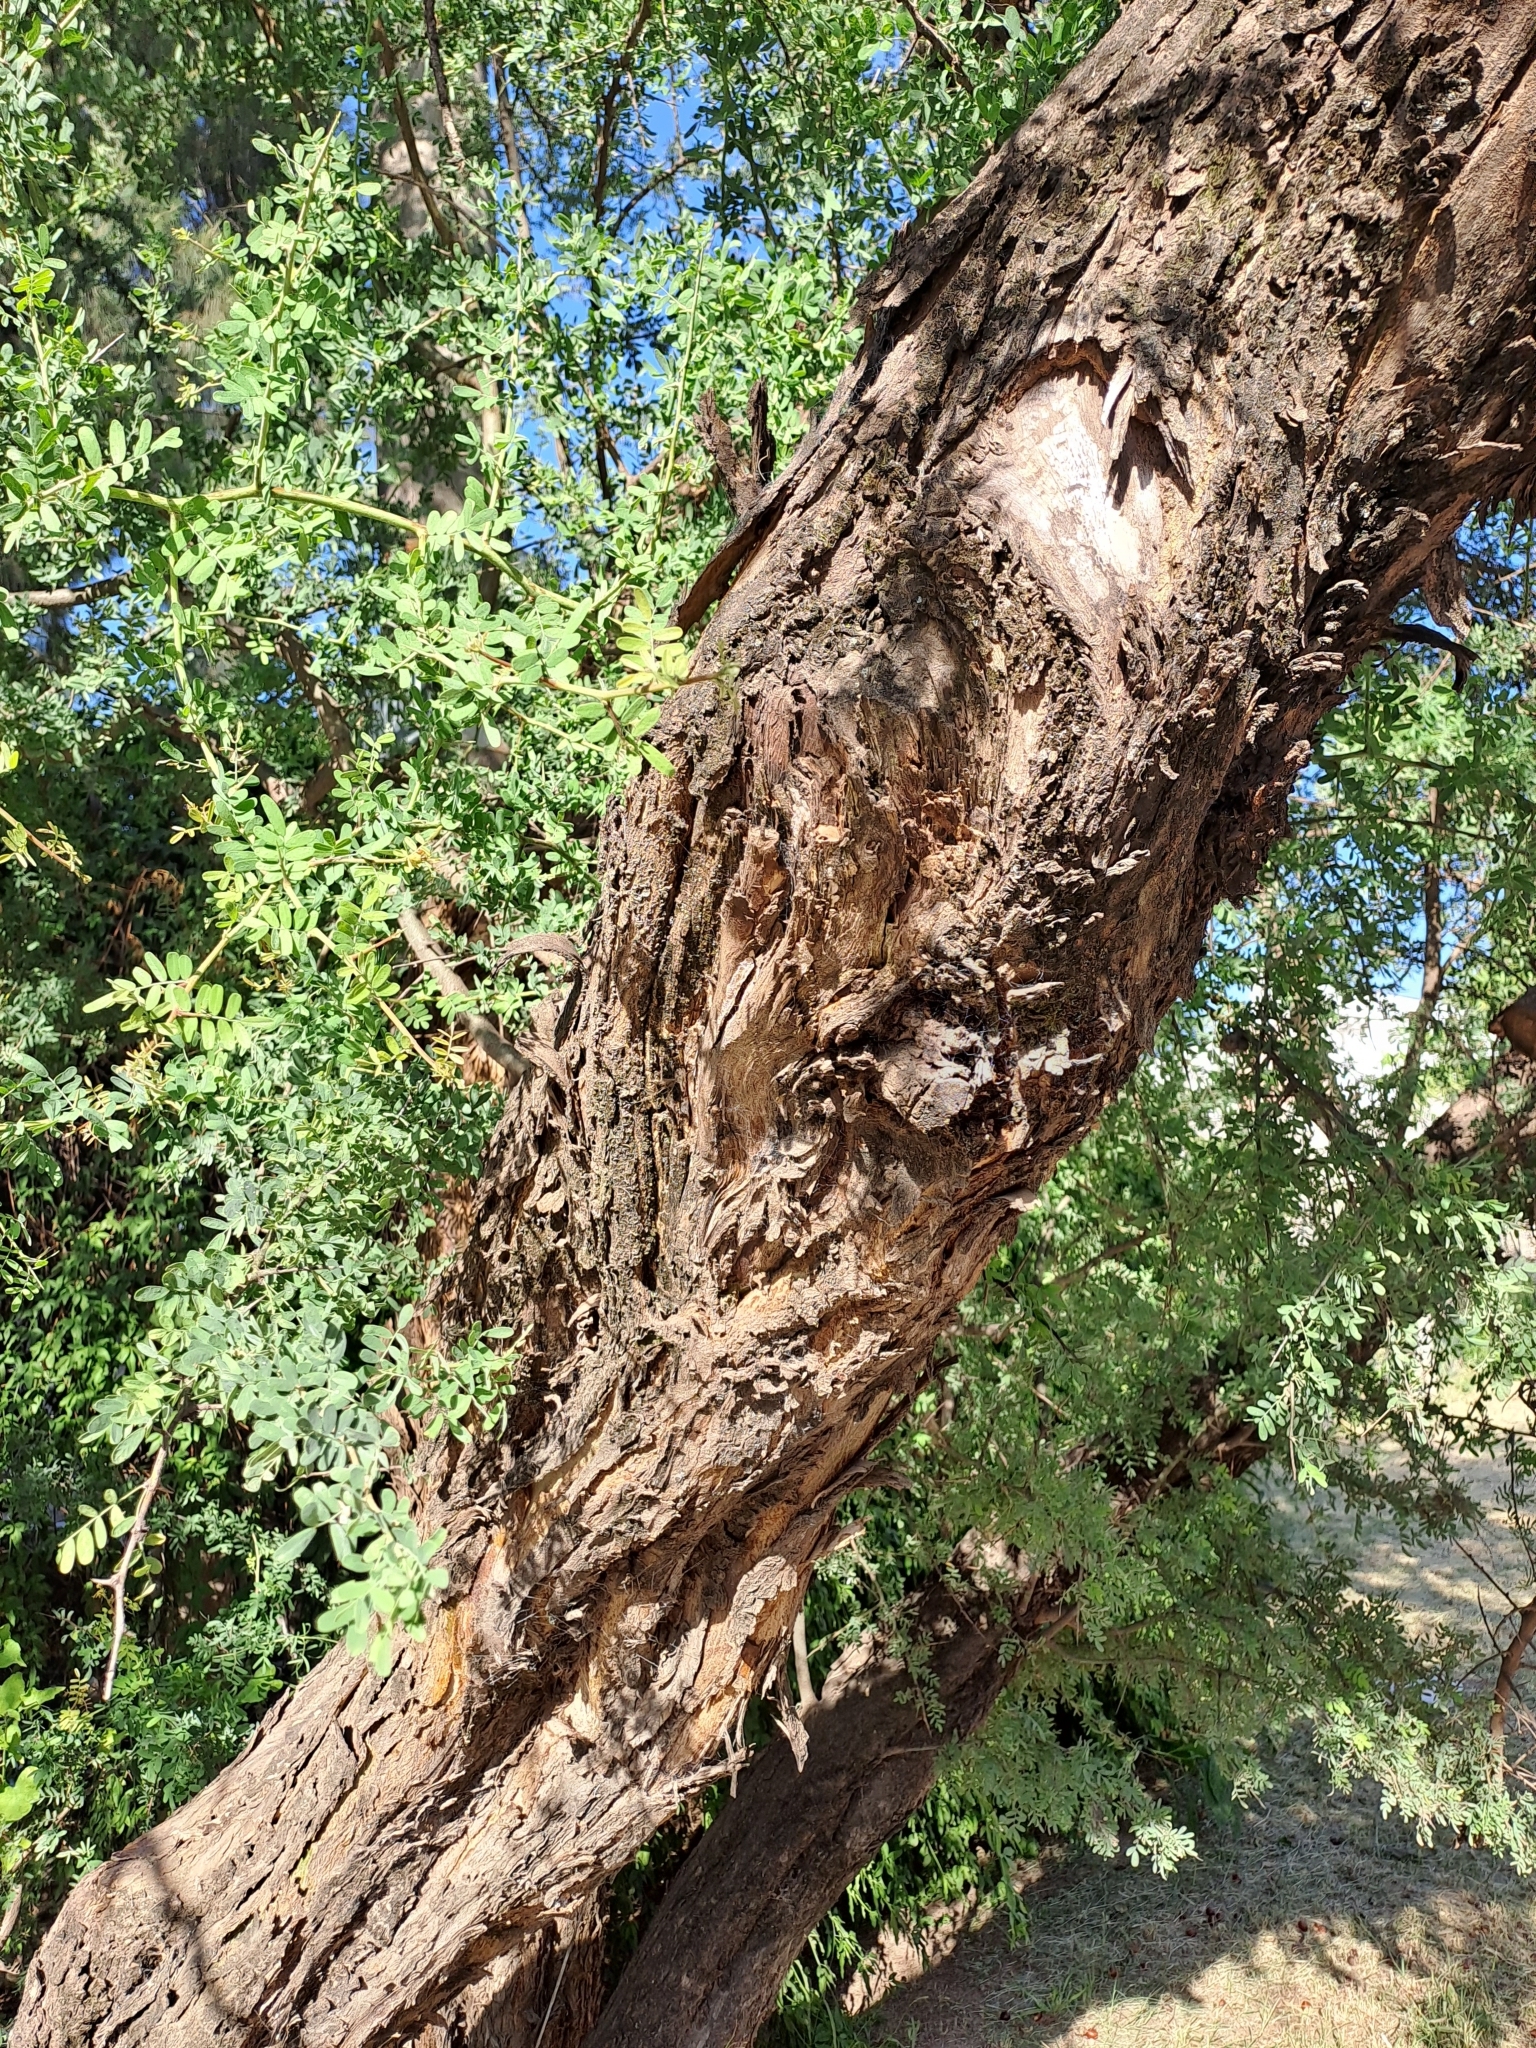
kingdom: Plantae
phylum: Tracheophyta
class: Magnoliopsida
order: Fabales
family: Fabaceae
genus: Geoffroea
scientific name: Geoffroea decorticans
